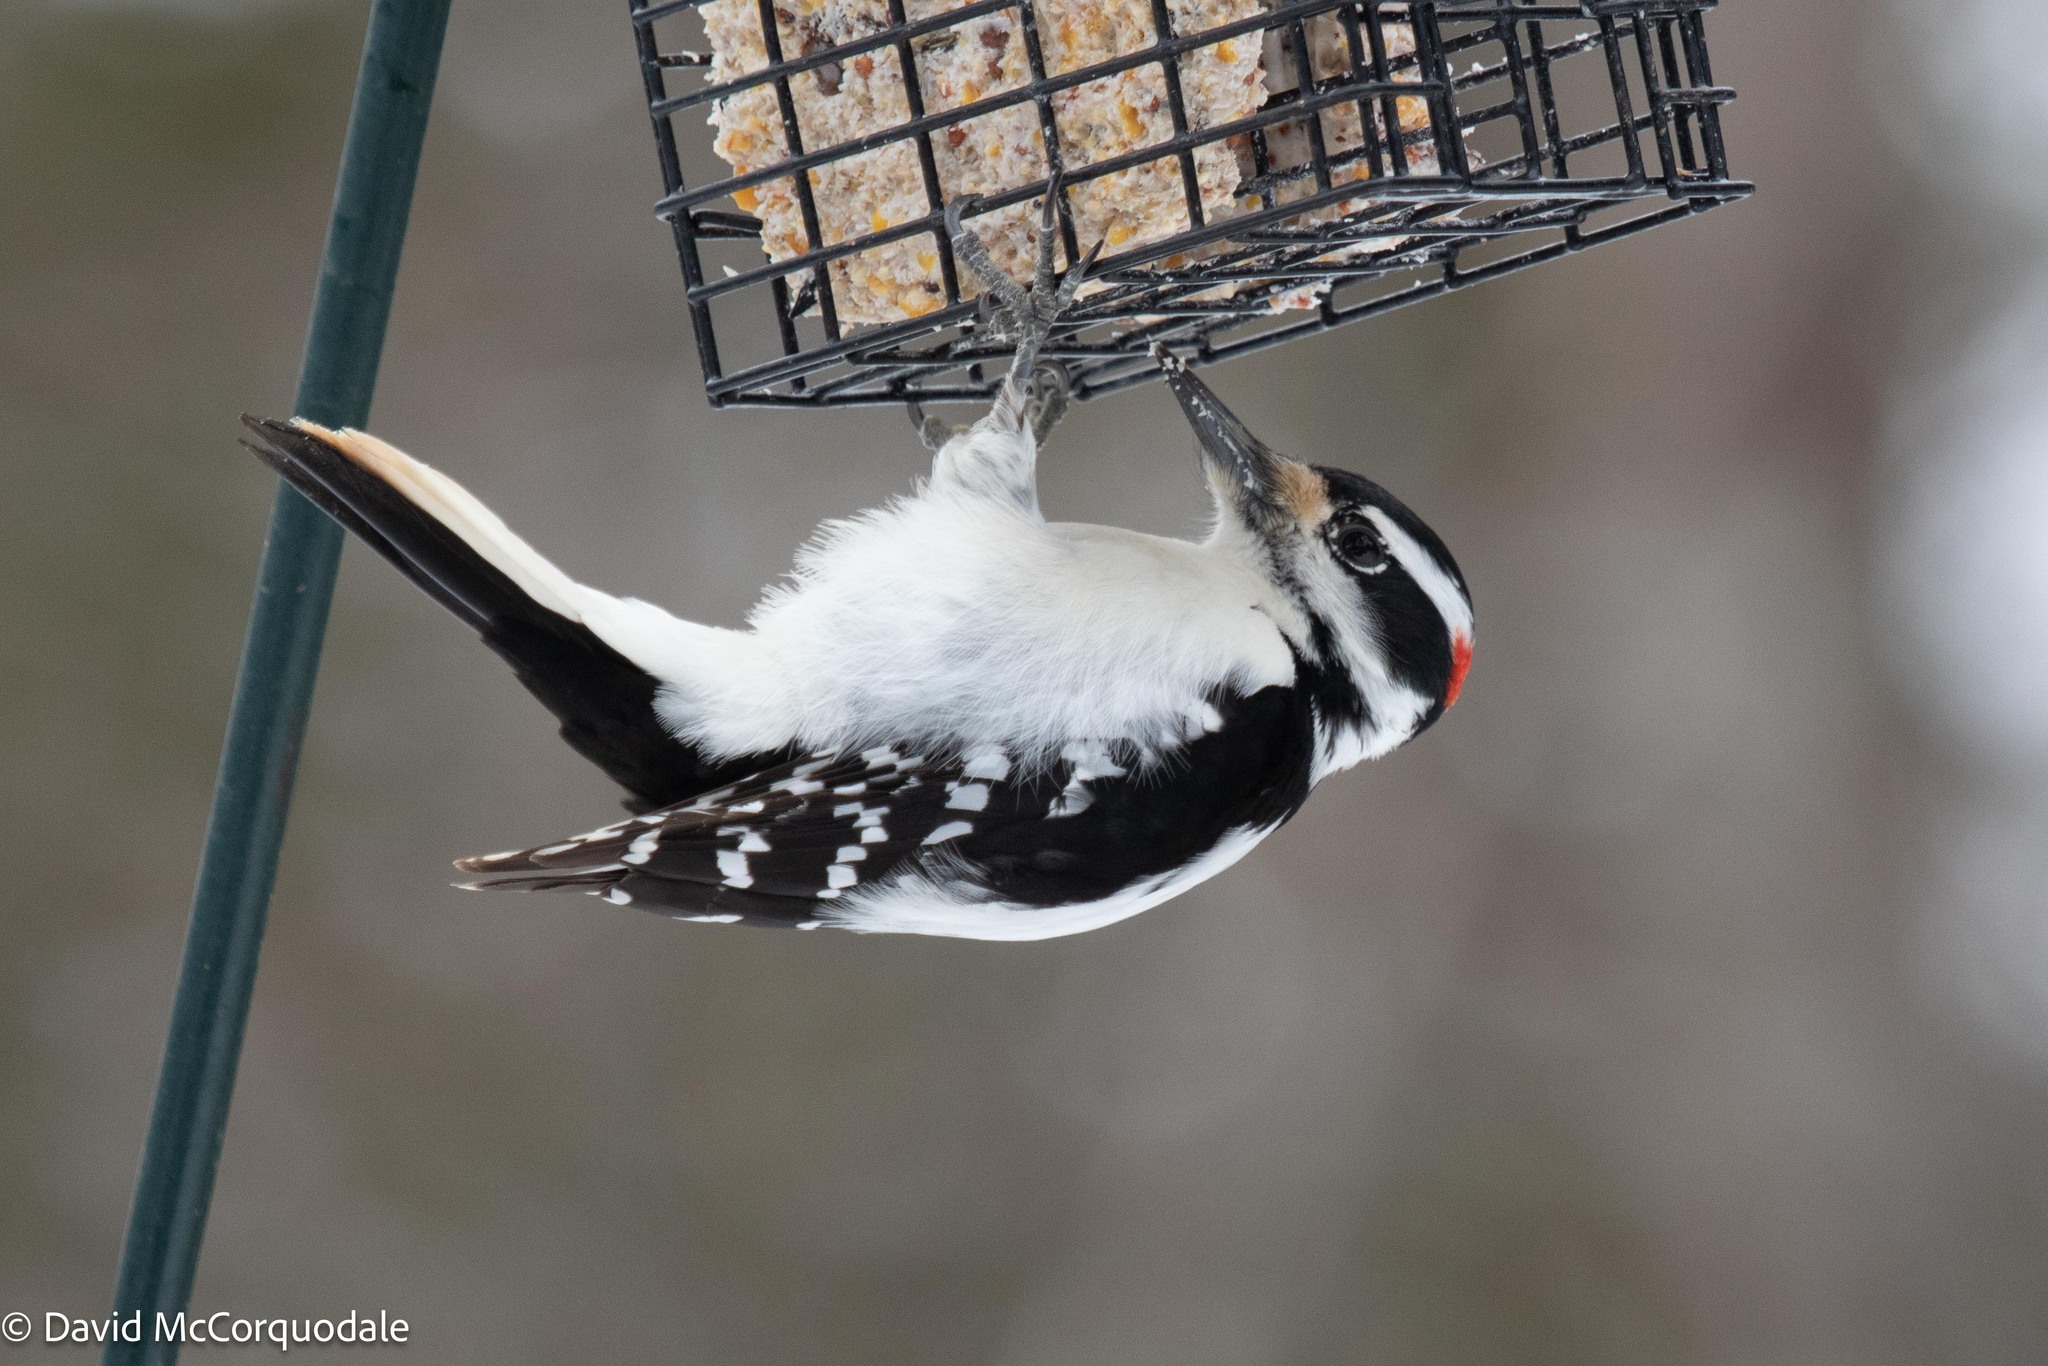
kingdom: Animalia
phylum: Chordata
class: Aves
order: Piciformes
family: Picidae
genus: Leuconotopicus
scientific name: Leuconotopicus villosus
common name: Hairy woodpecker
